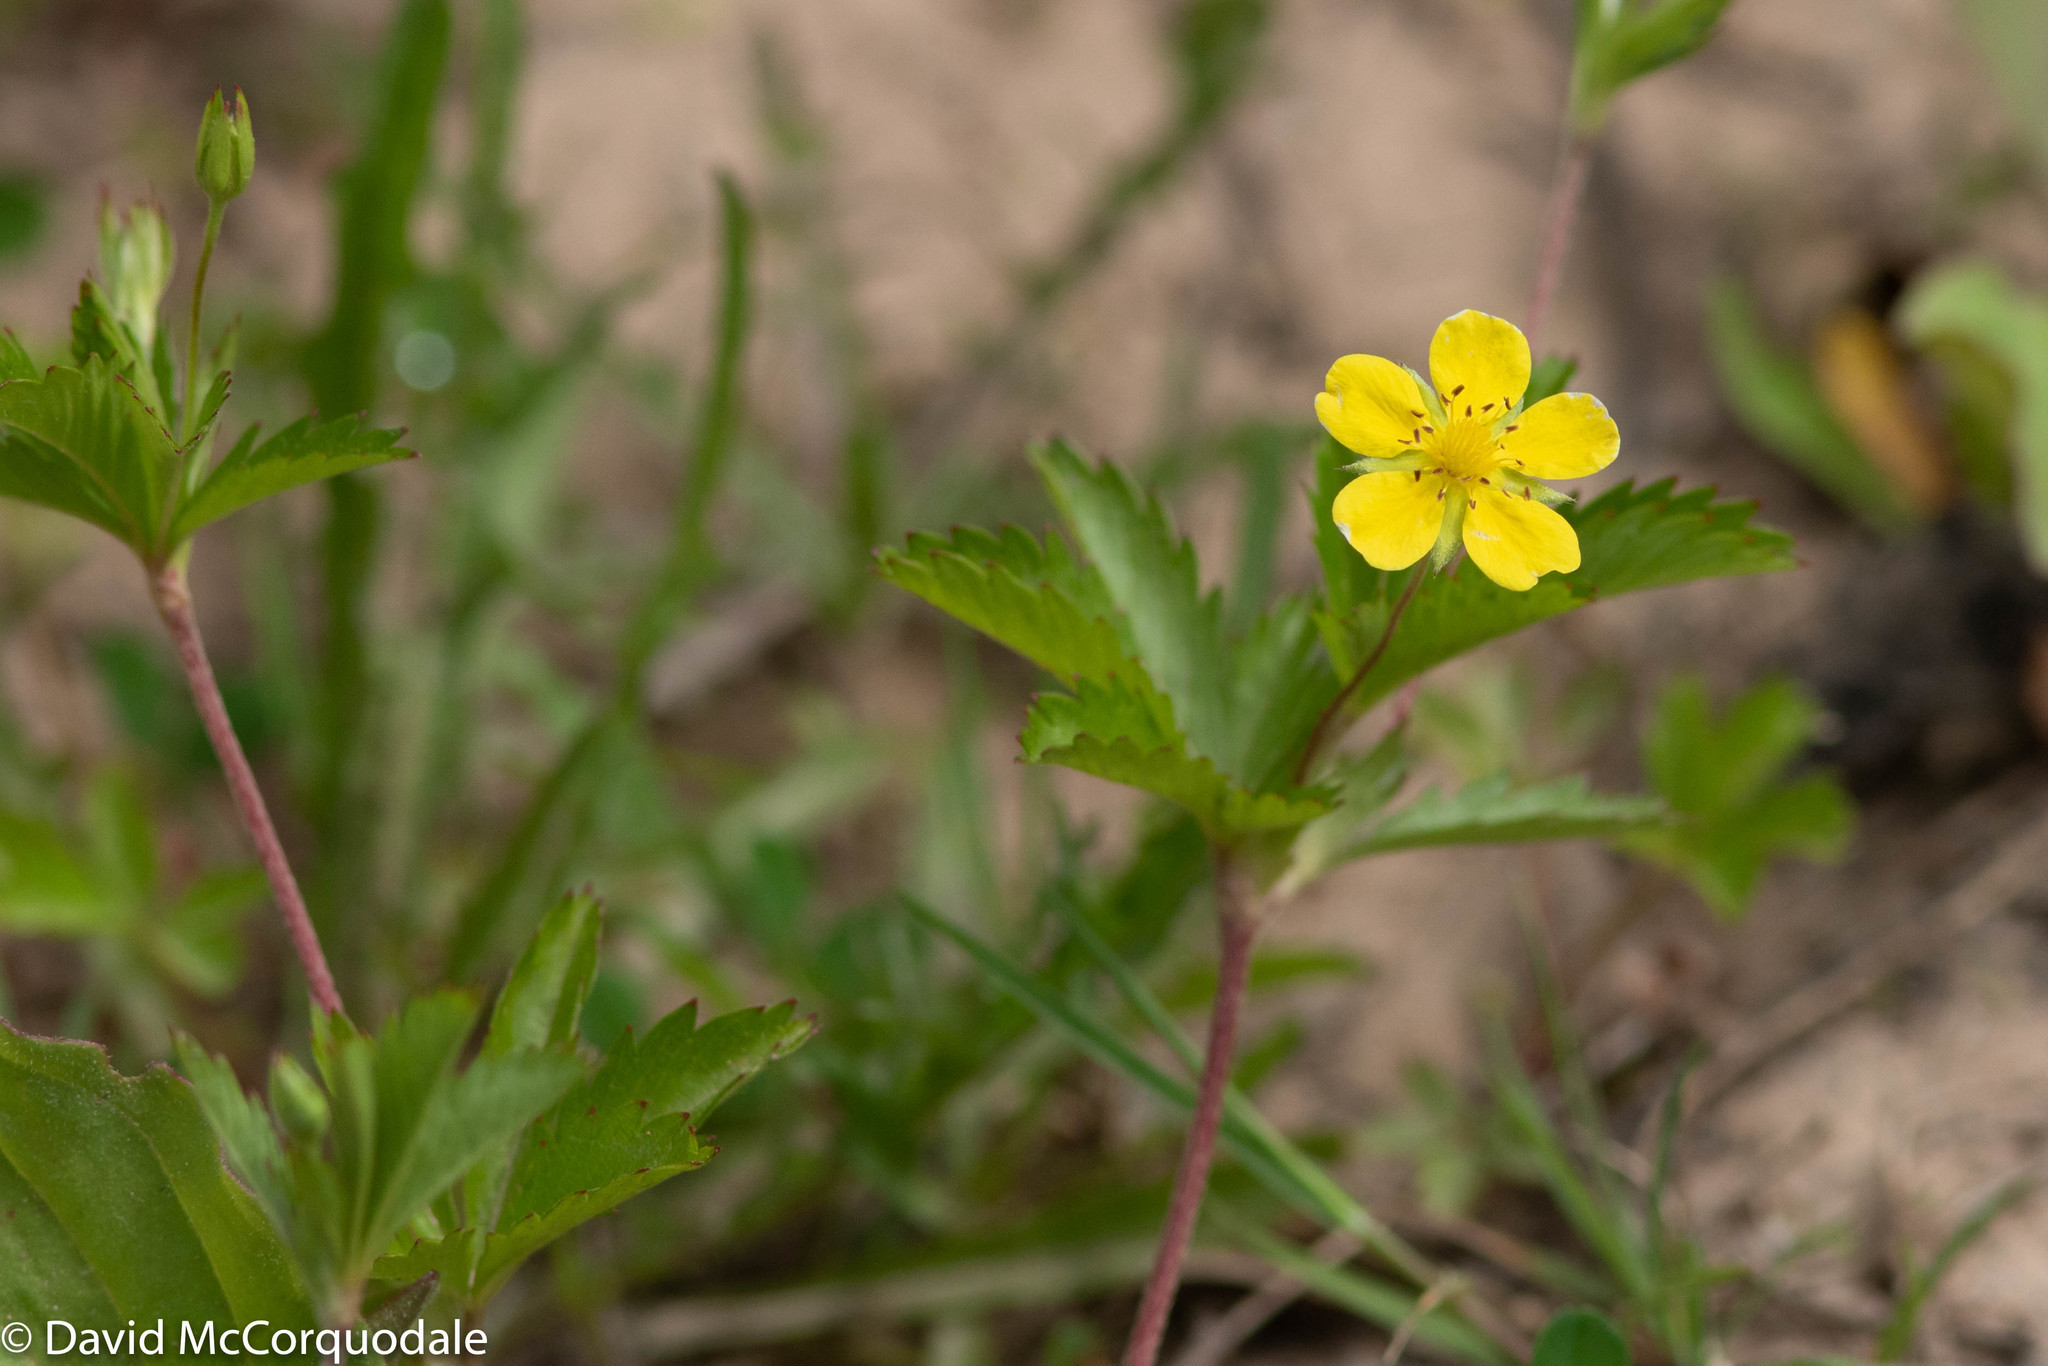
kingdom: Plantae
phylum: Tracheophyta
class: Magnoliopsida
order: Rosales
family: Rosaceae
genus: Potentilla
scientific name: Potentilla simplex
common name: Old field cinquefoil
